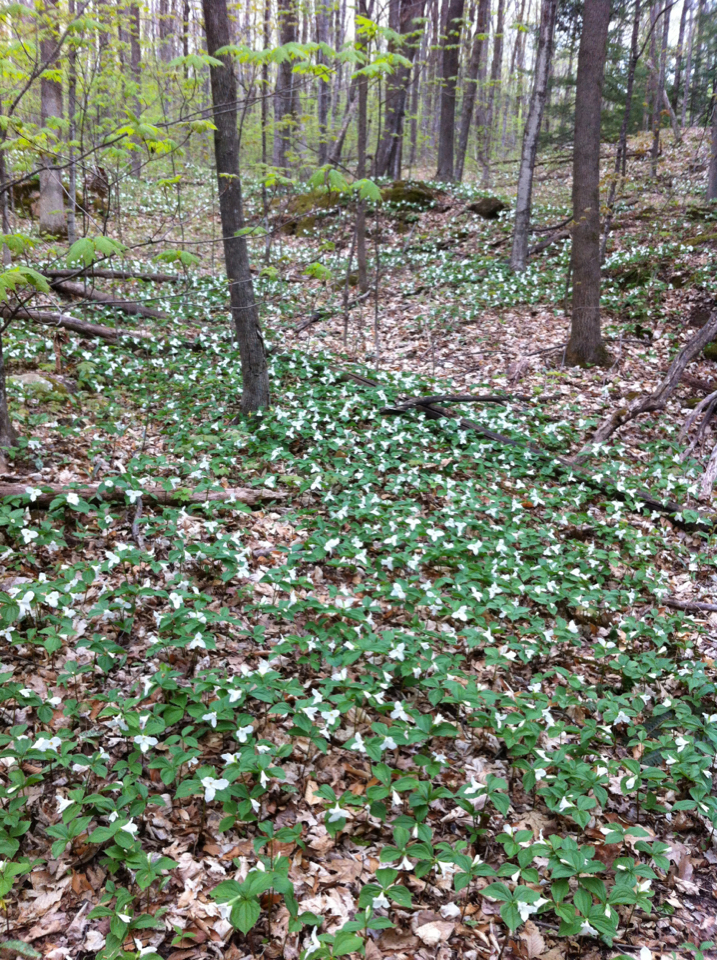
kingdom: Plantae
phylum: Tracheophyta
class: Liliopsida
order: Liliales
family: Melanthiaceae
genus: Trillium
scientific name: Trillium grandiflorum
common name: Great white trillium
